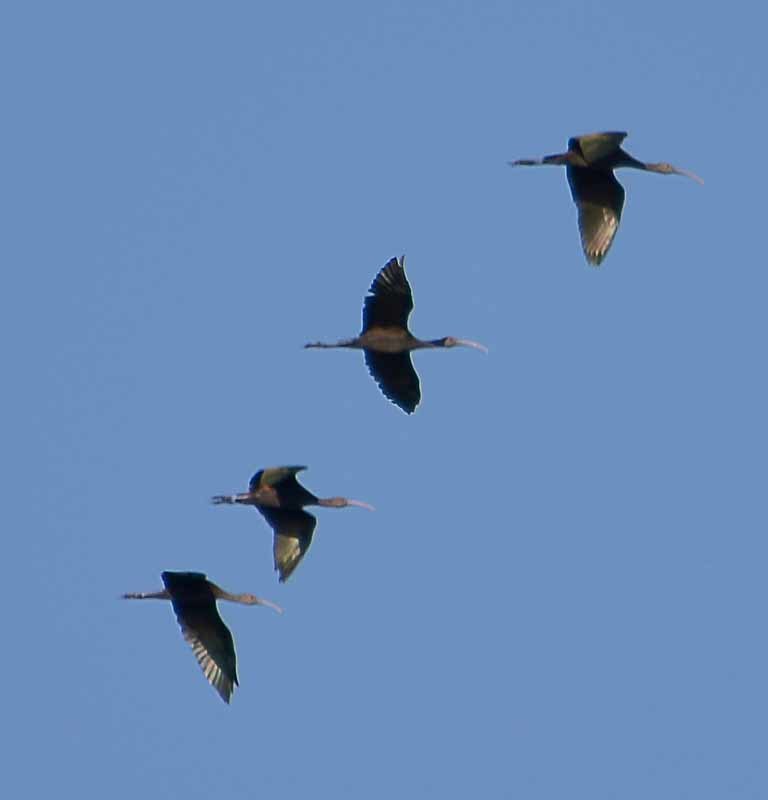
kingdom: Animalia
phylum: Chordata
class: Aves
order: Pelecaniformes
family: Threskiornithidae
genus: Plegadis
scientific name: Plegadis chihi
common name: White-faced ibis
